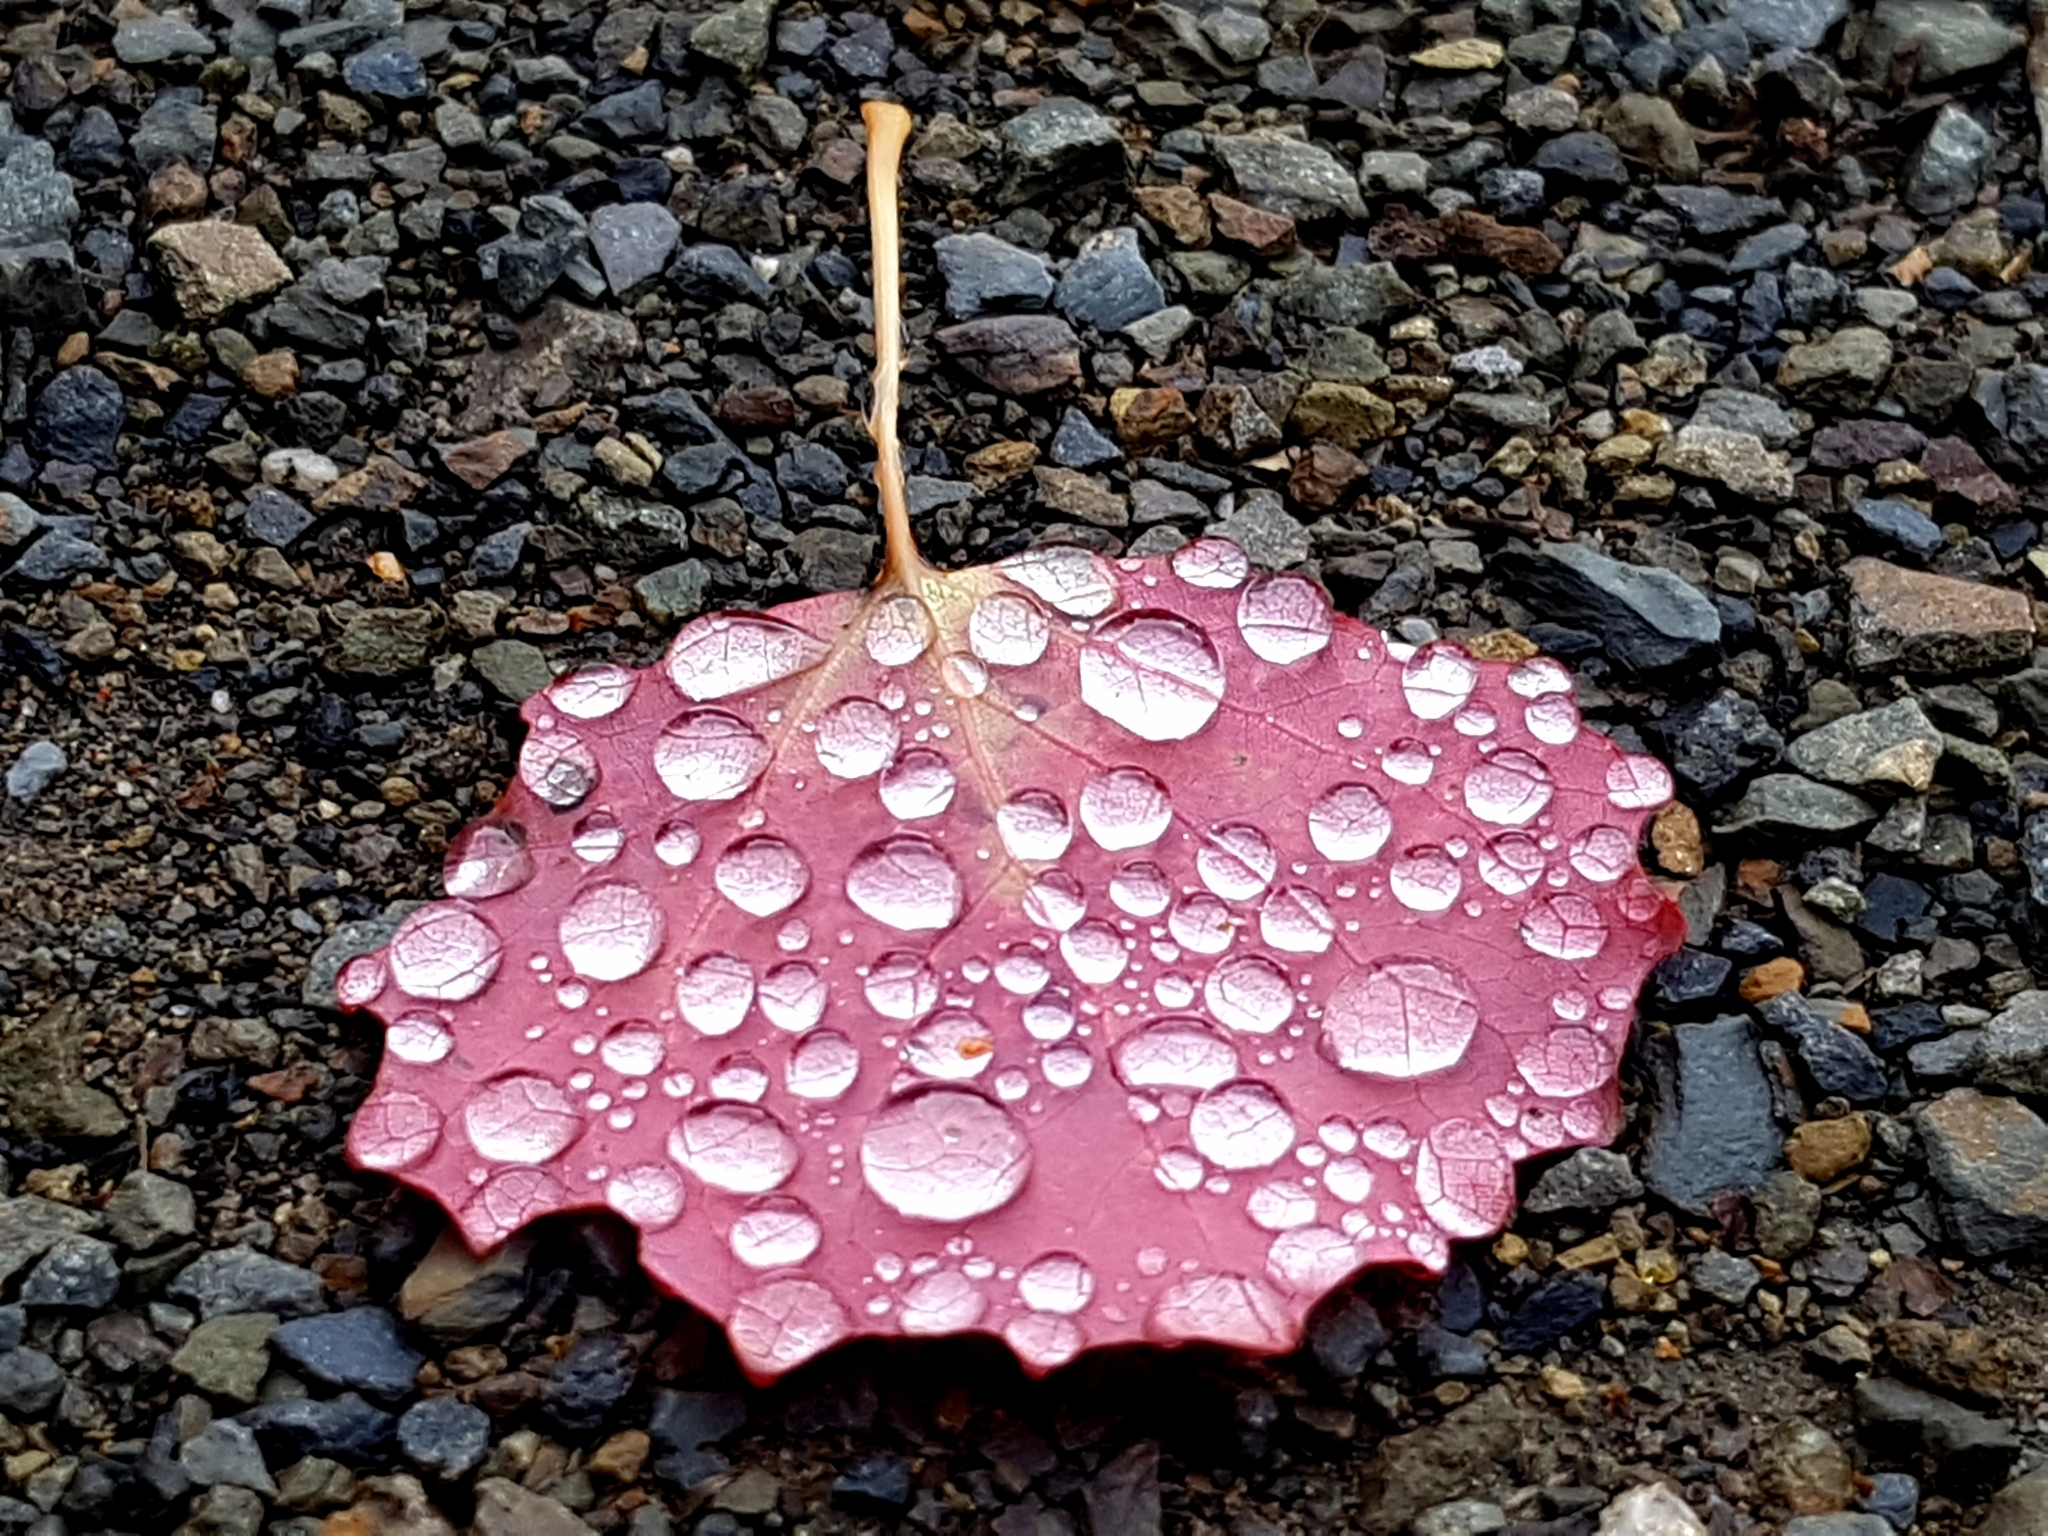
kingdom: Plantae
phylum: Tracheophyta
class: Magnoliopsida
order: Malpighiales
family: Salicaceae
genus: Populus
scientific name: Populus tremula
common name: European aspen
